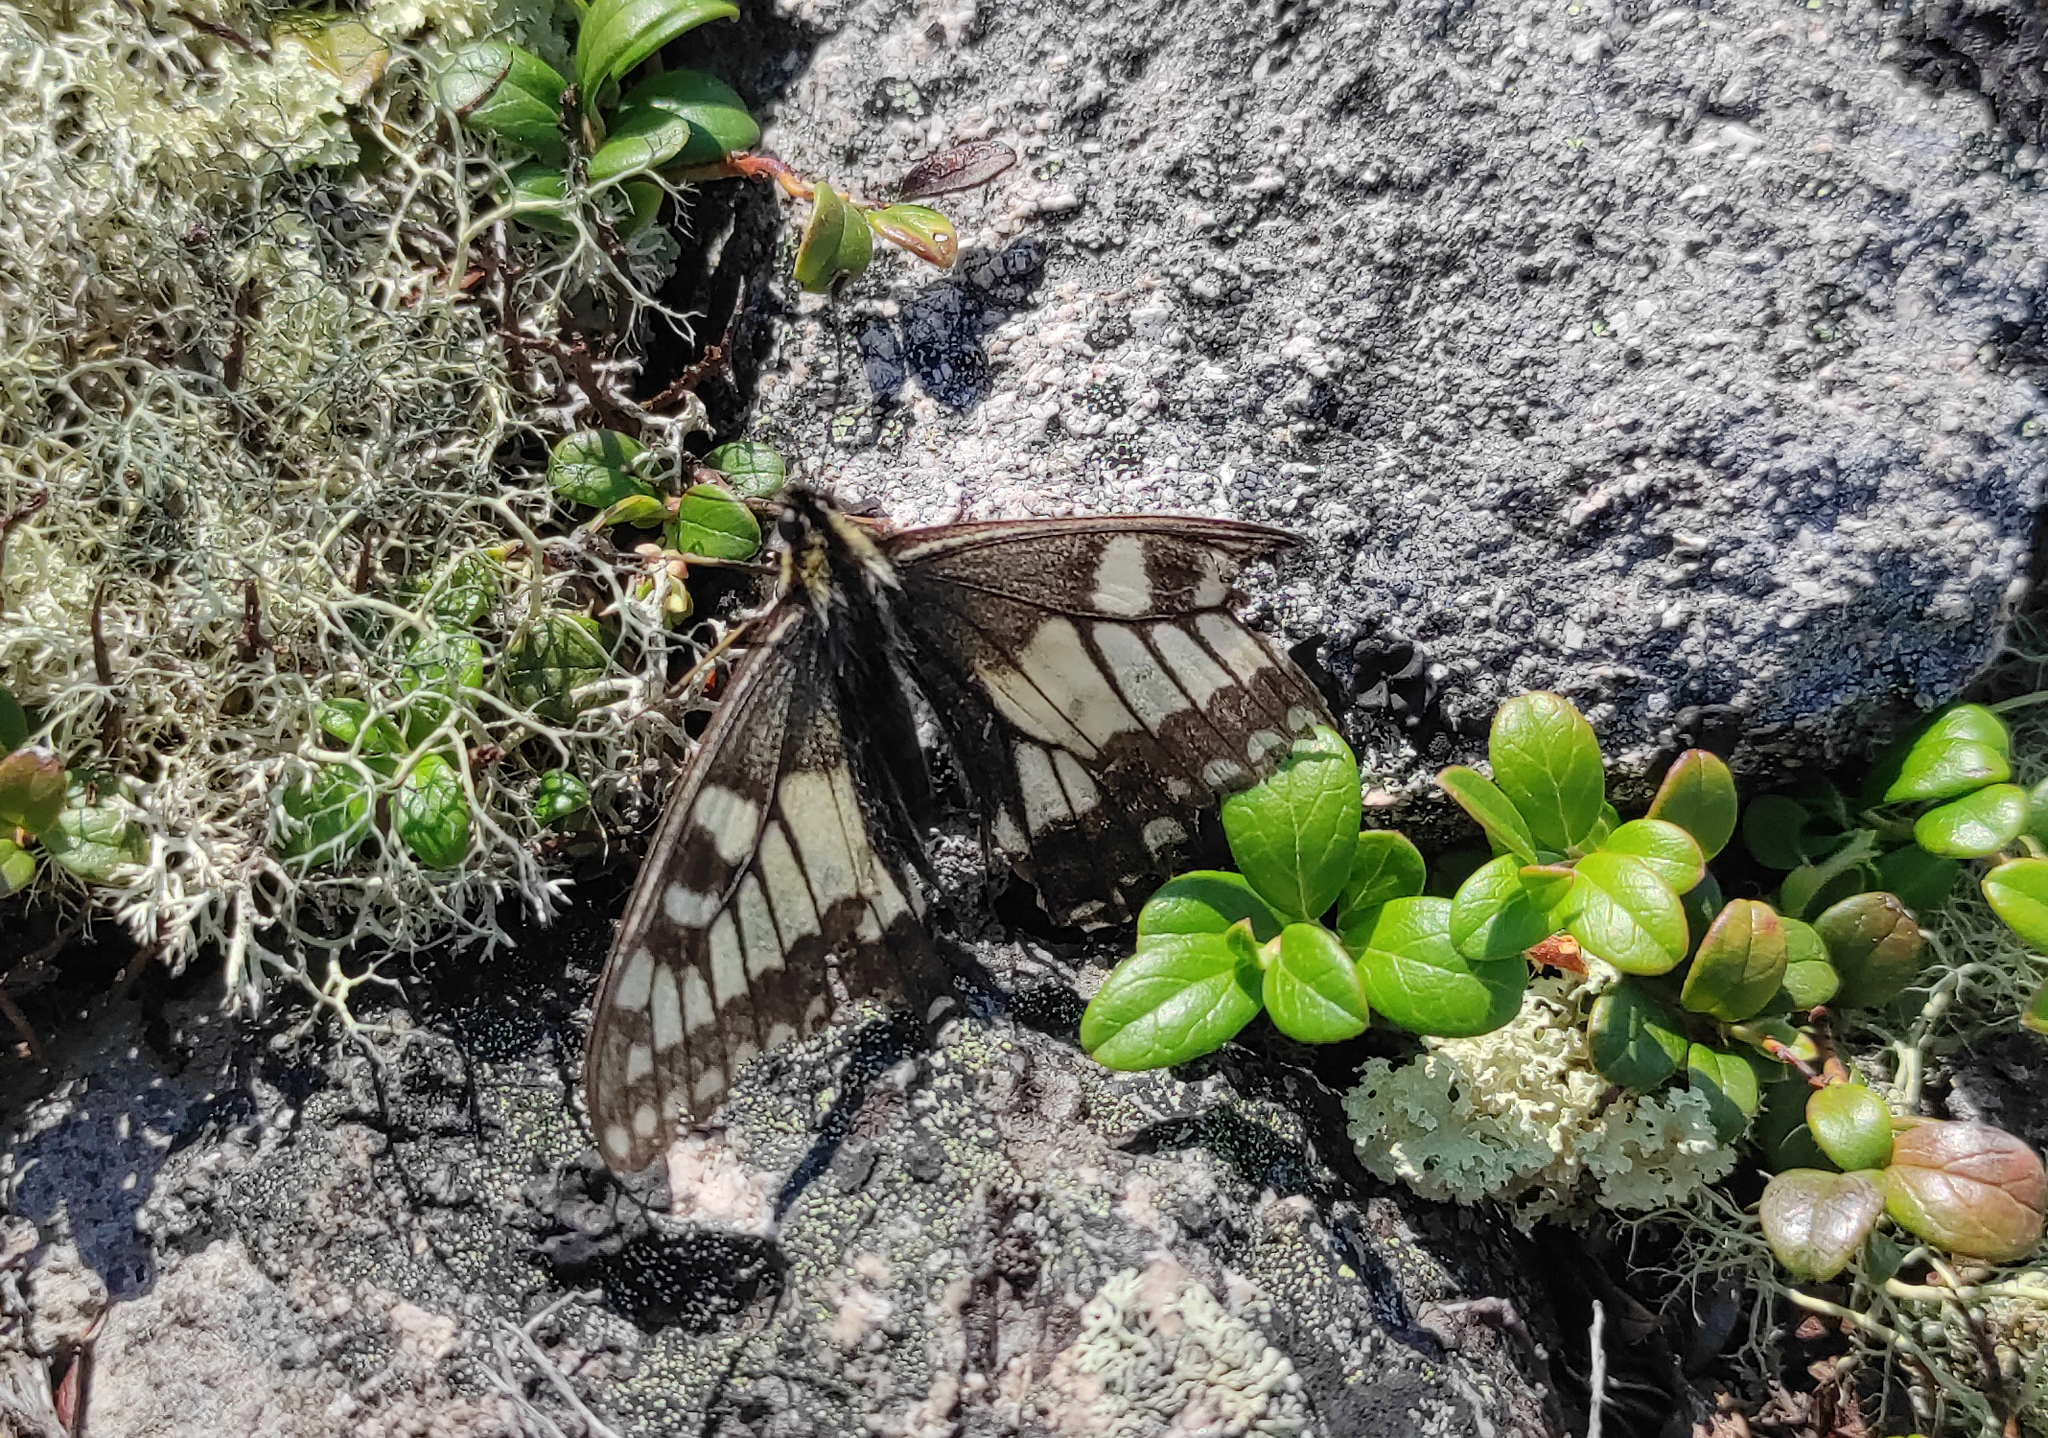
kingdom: Animalia
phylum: Arthropoda
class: Insecta
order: Lepidoptera
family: Papilionidae
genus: Papilio
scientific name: Papilio machaon
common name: Swallowtail
